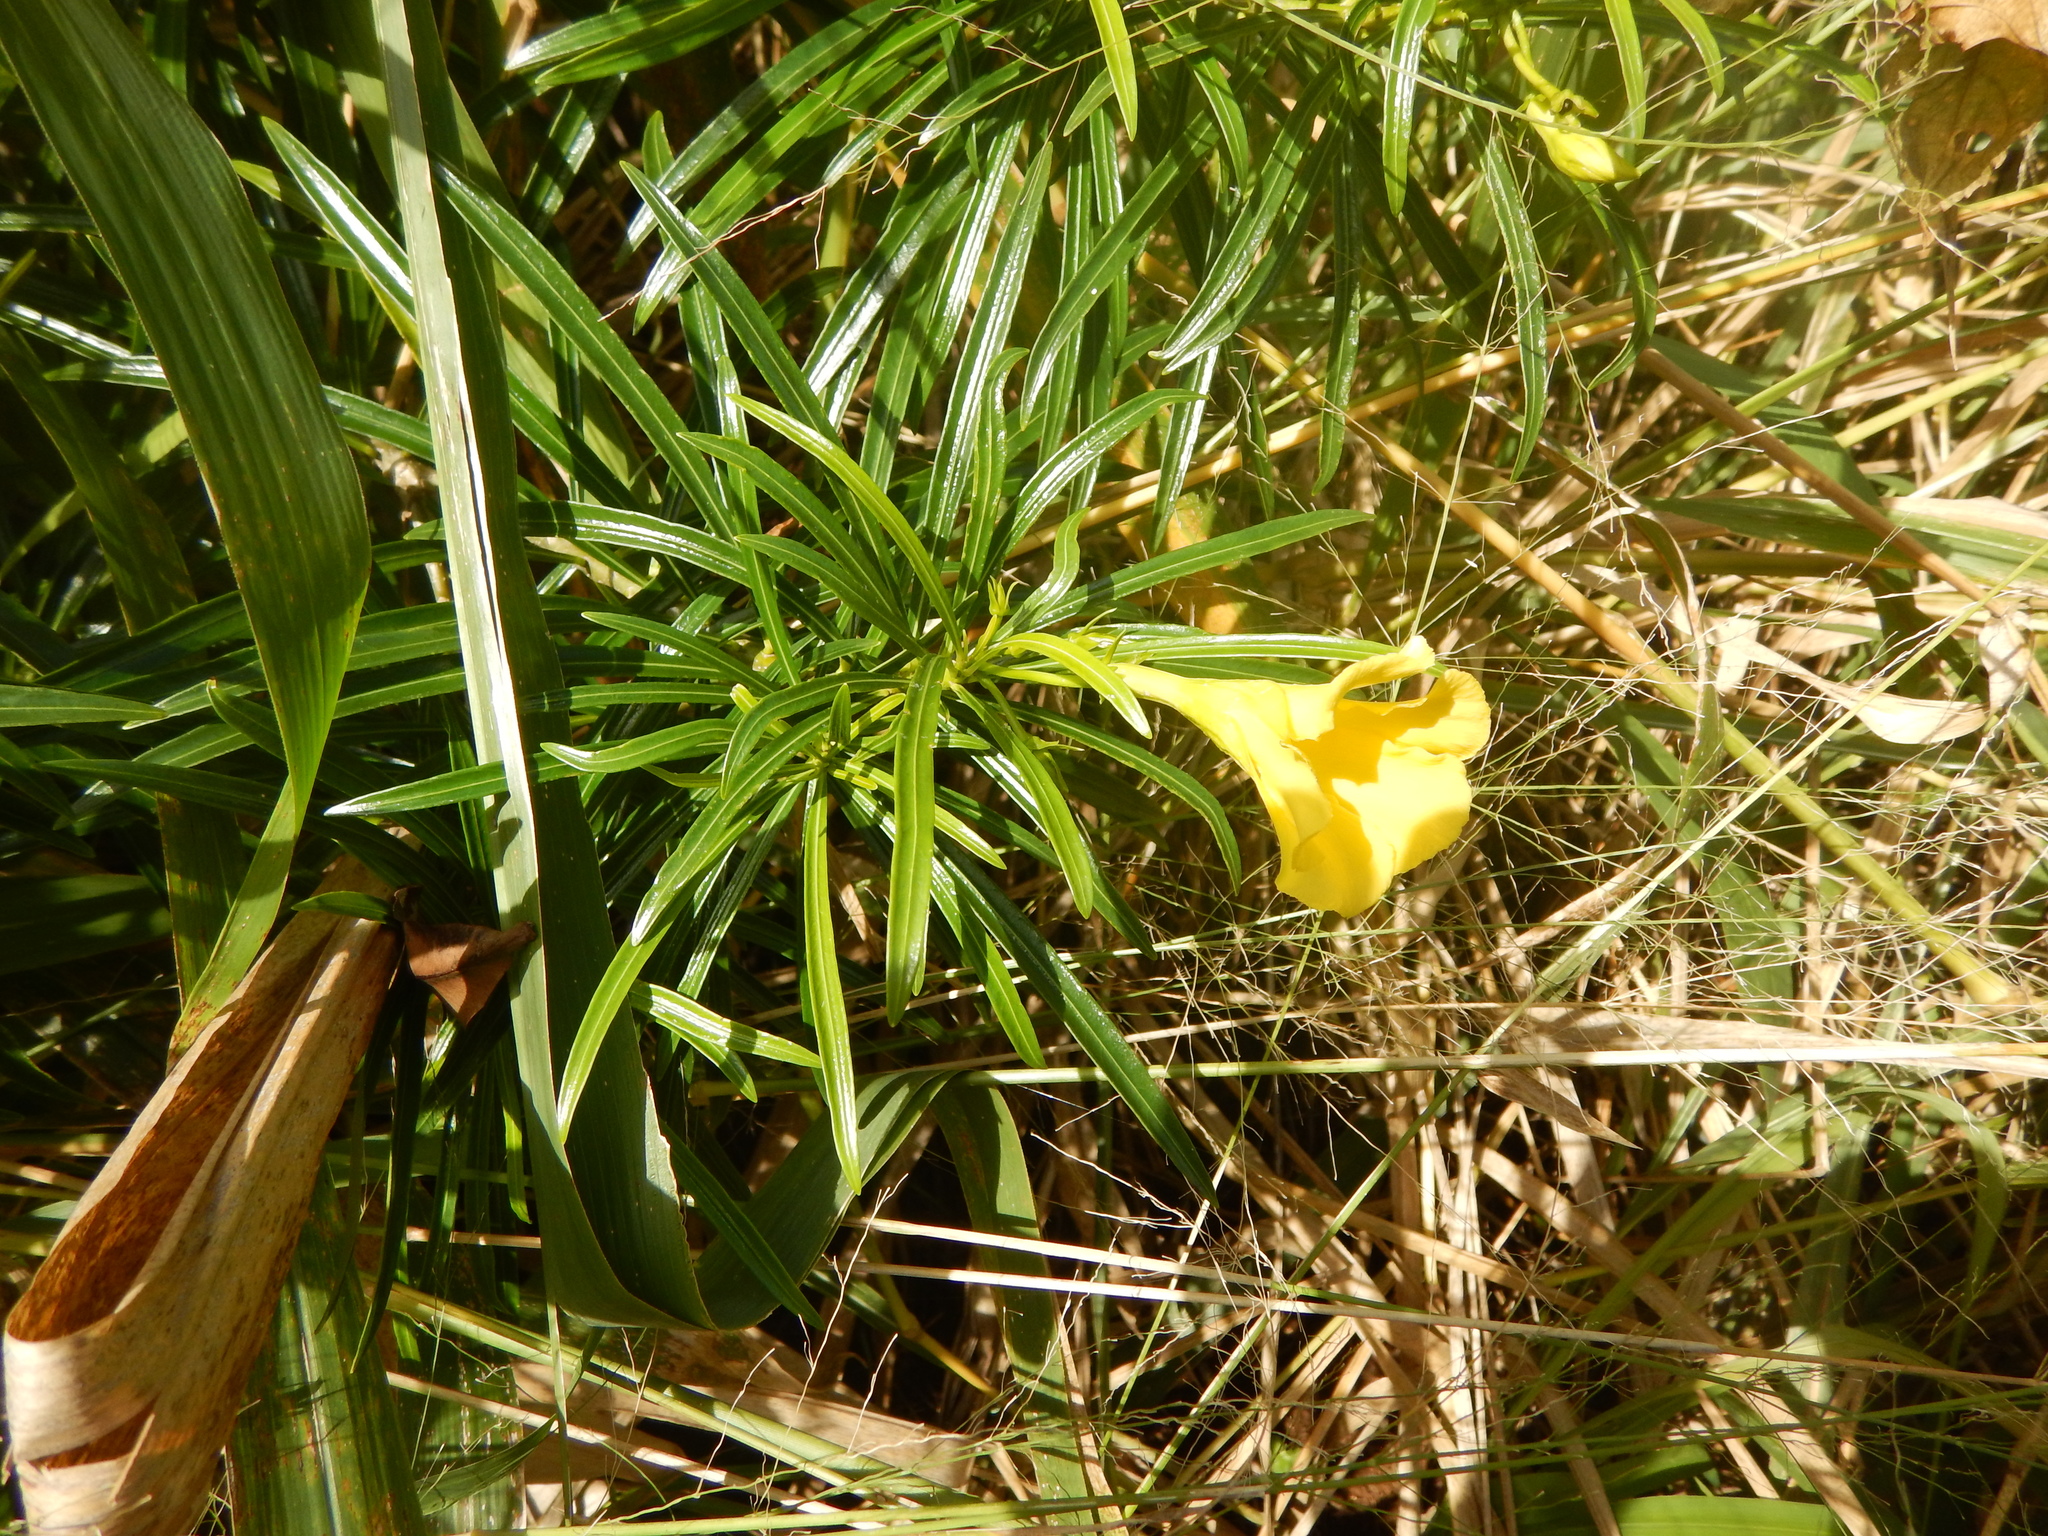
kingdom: Plantae
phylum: Tracheophyta
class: Magnoliopsida
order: Gentianales
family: Apocynaceae
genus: Cascabela
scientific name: Cascabela thevetia
